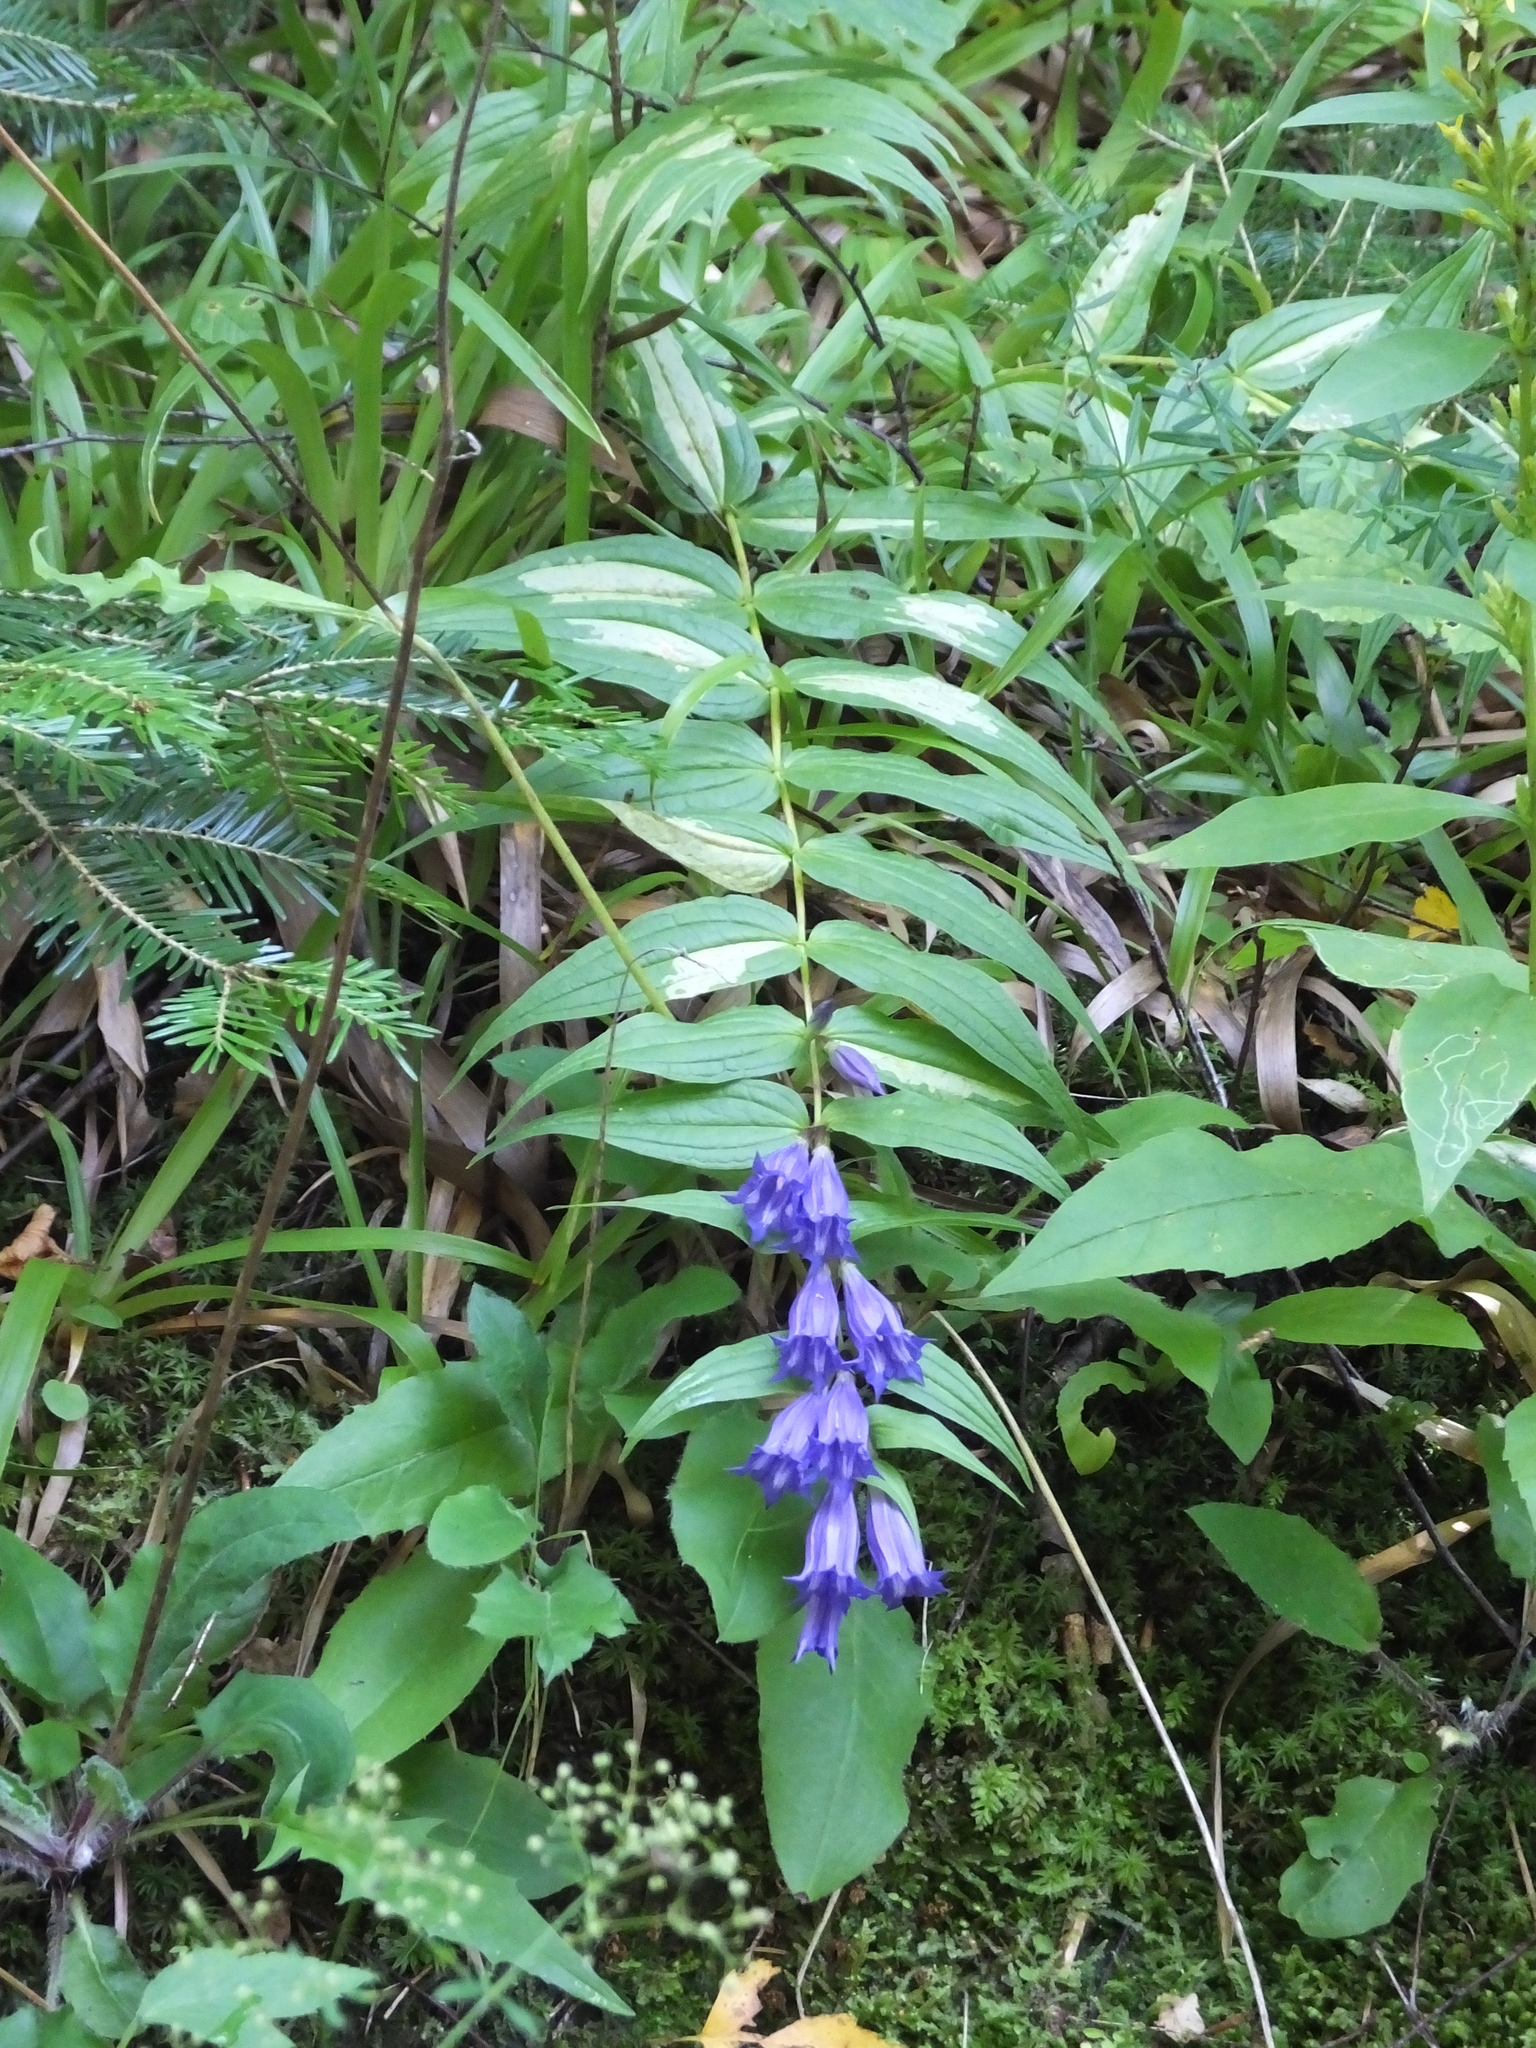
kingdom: Plantae
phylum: Tracheophyta
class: Magnoliopsida
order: Gentianales
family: Gentianaceae
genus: Gentiana
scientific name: Gentiana asclepiadea
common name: Willow gentian
